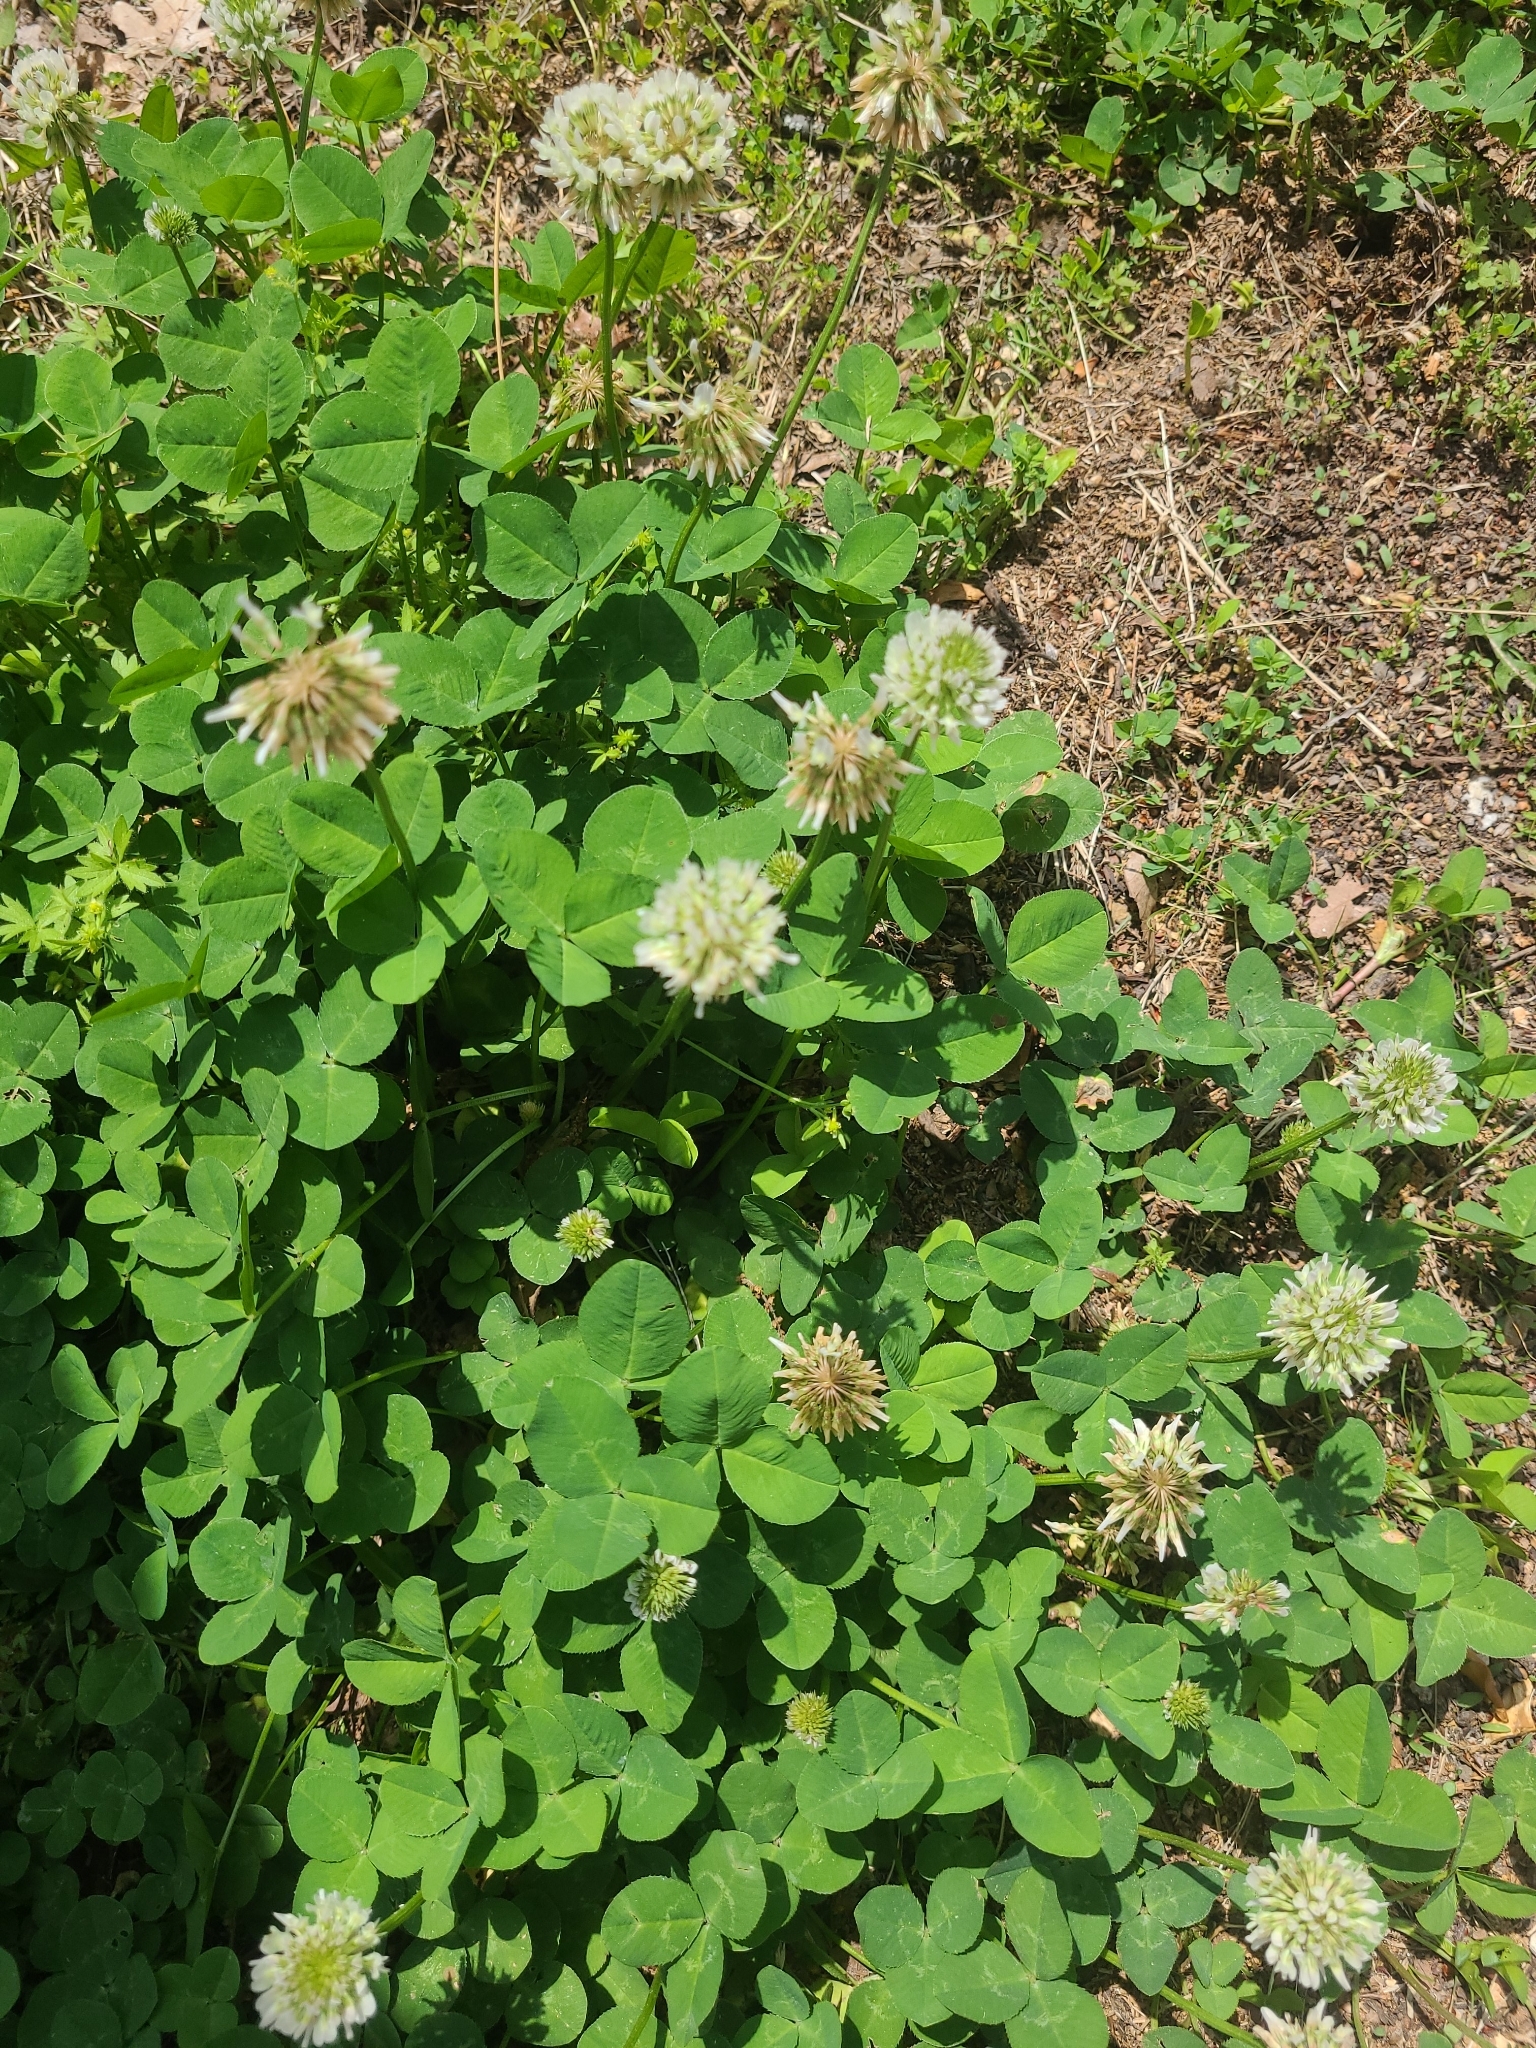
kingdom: Plantae
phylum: Tracheophyta
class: Magnoliopsida
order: Fabales
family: Fabaceae
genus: Trifolium
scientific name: Trifolium repens
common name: White clover
